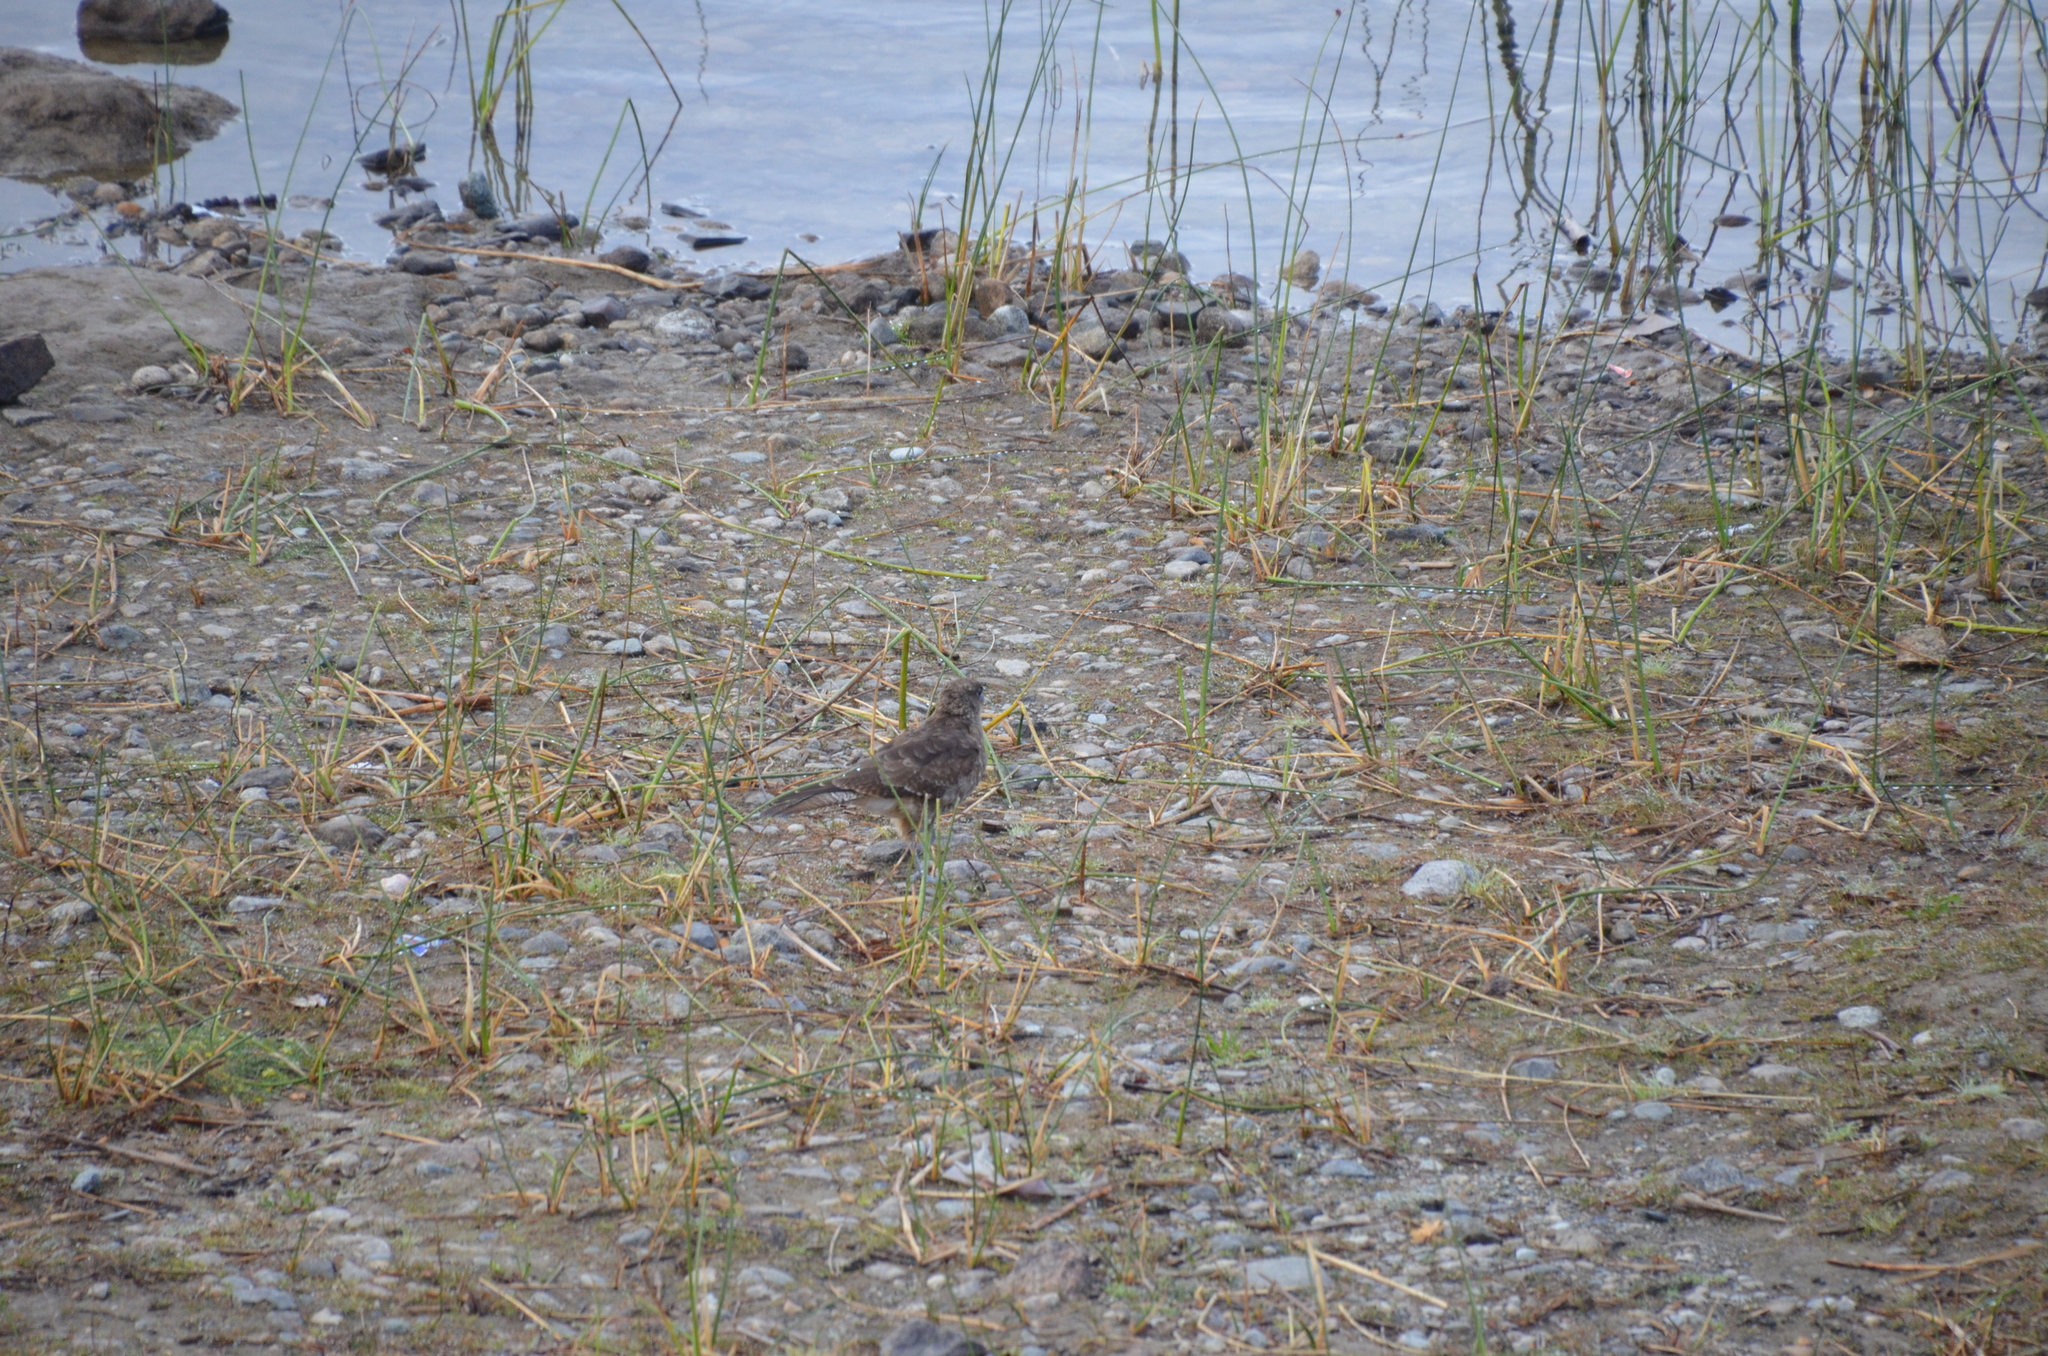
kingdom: Animalia
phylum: Chordata
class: Aves
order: Falconiformes
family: Falconidae
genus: Daptrius
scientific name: Daptrius
